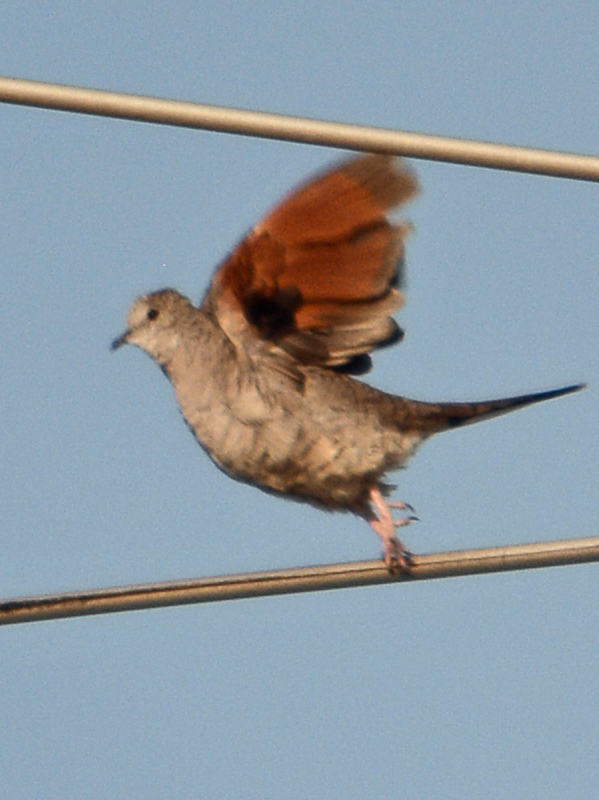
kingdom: Animalia
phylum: Chordata
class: Aves
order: Columbiformes
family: Columbidae
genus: Columbina
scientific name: Columbina inca
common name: Inca dove
